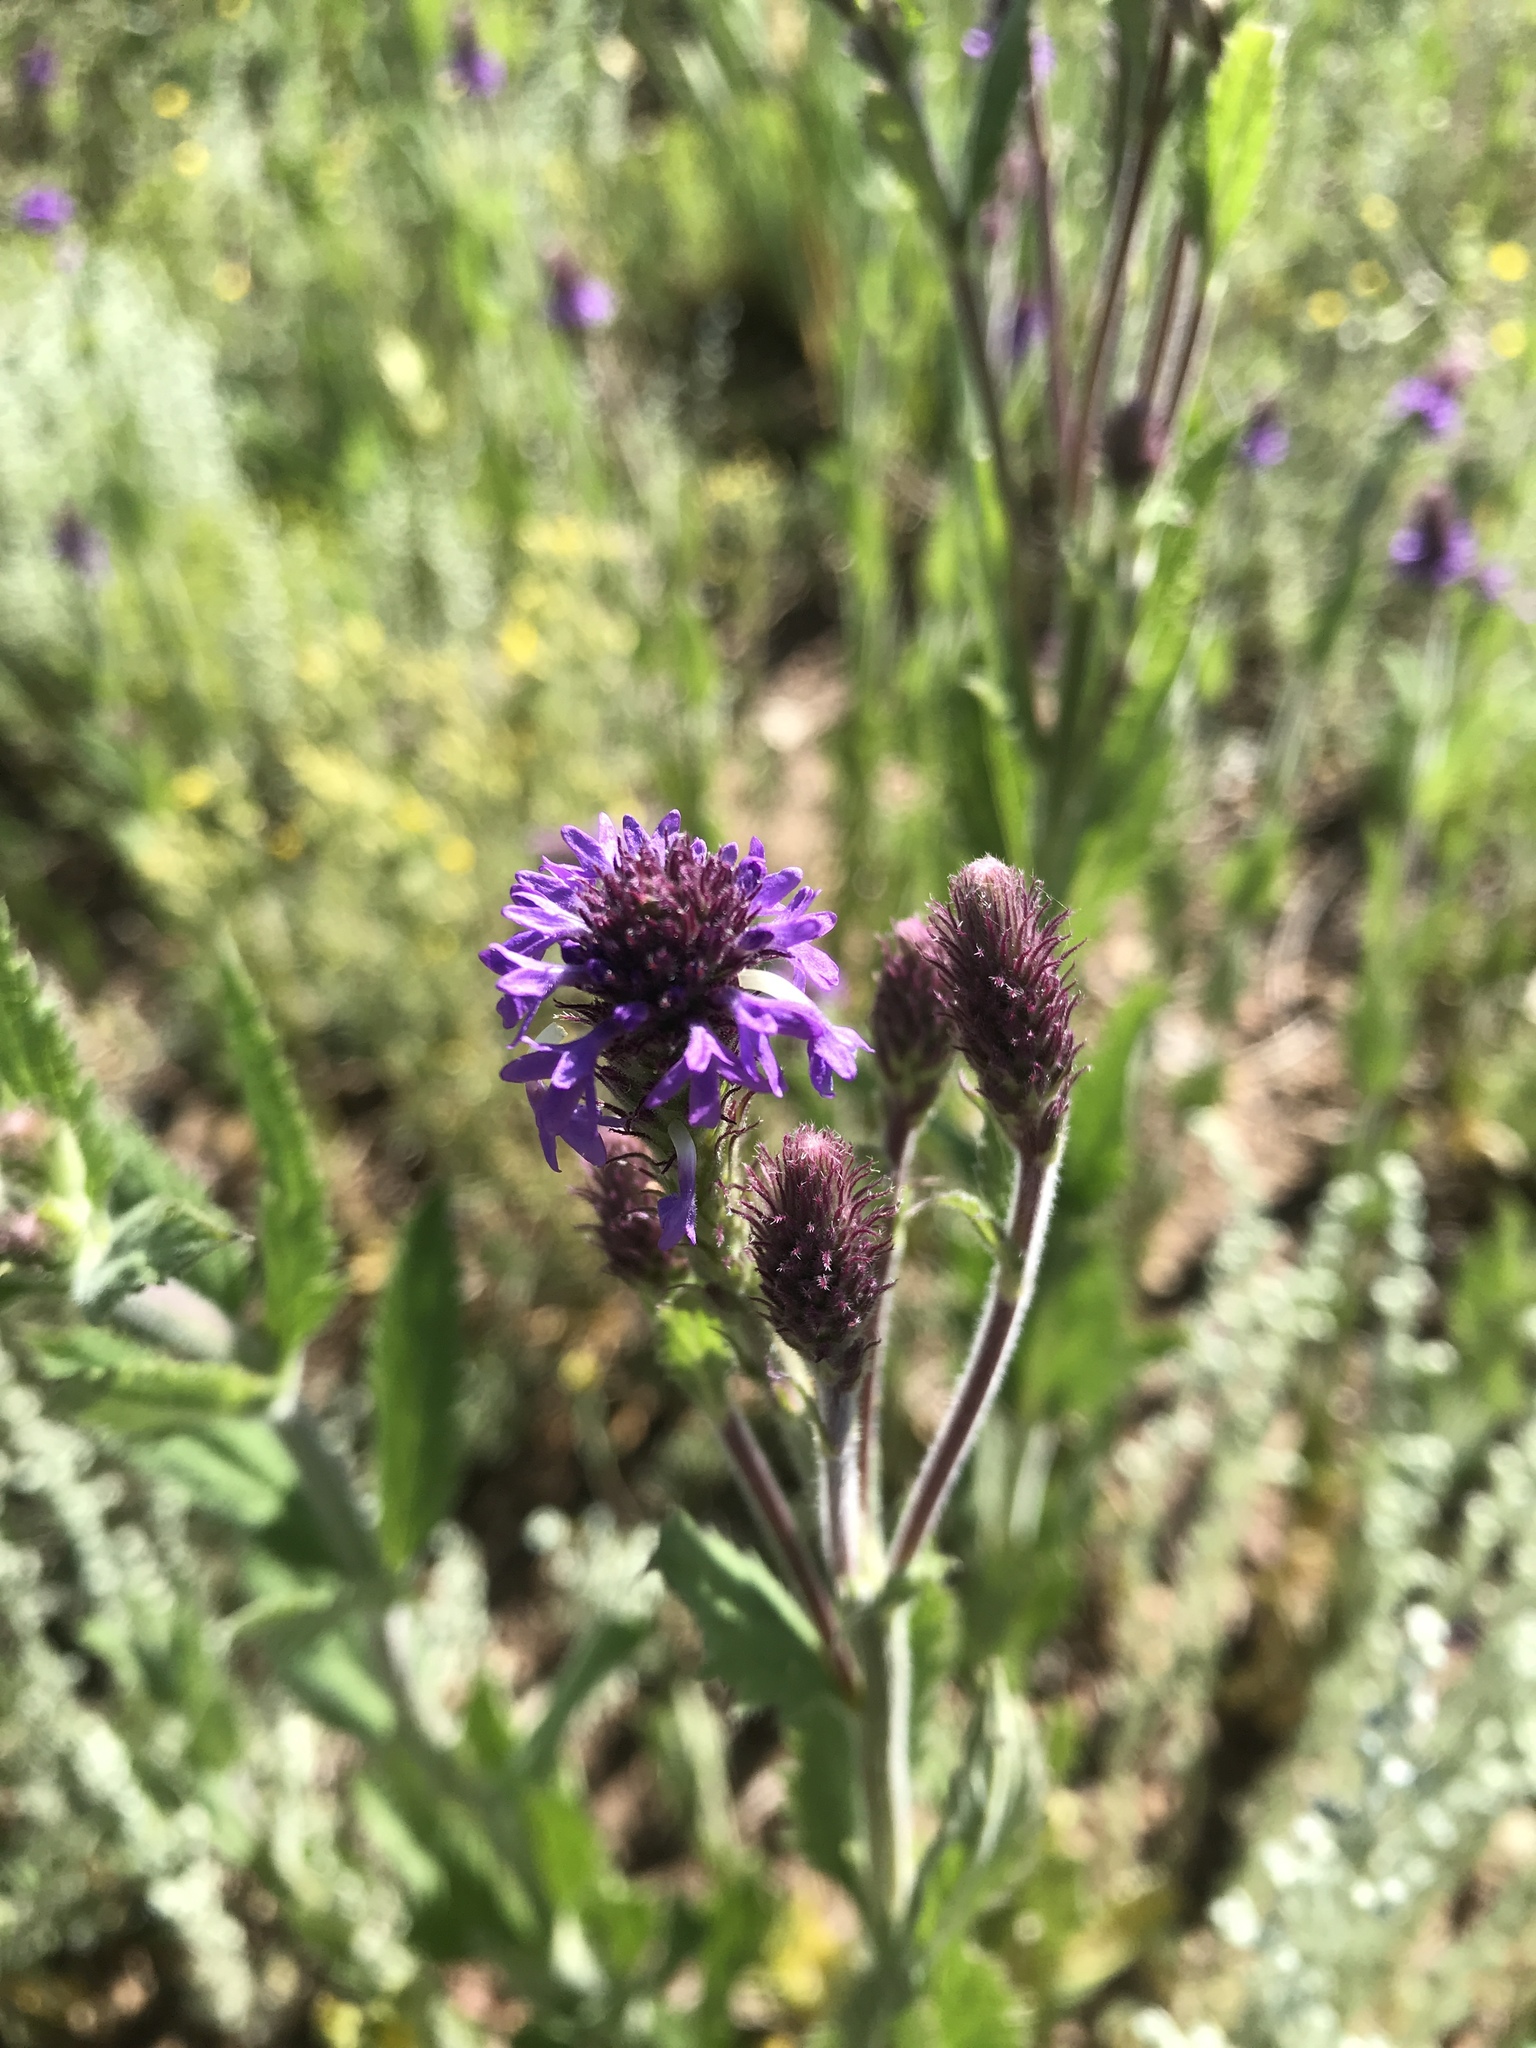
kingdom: Plantae
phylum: Tracheophyta
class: Magnoliopsida
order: Lamiales
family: Verbenaceae
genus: Verbena
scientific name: Verbena macdougalii
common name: New mexico vervain
